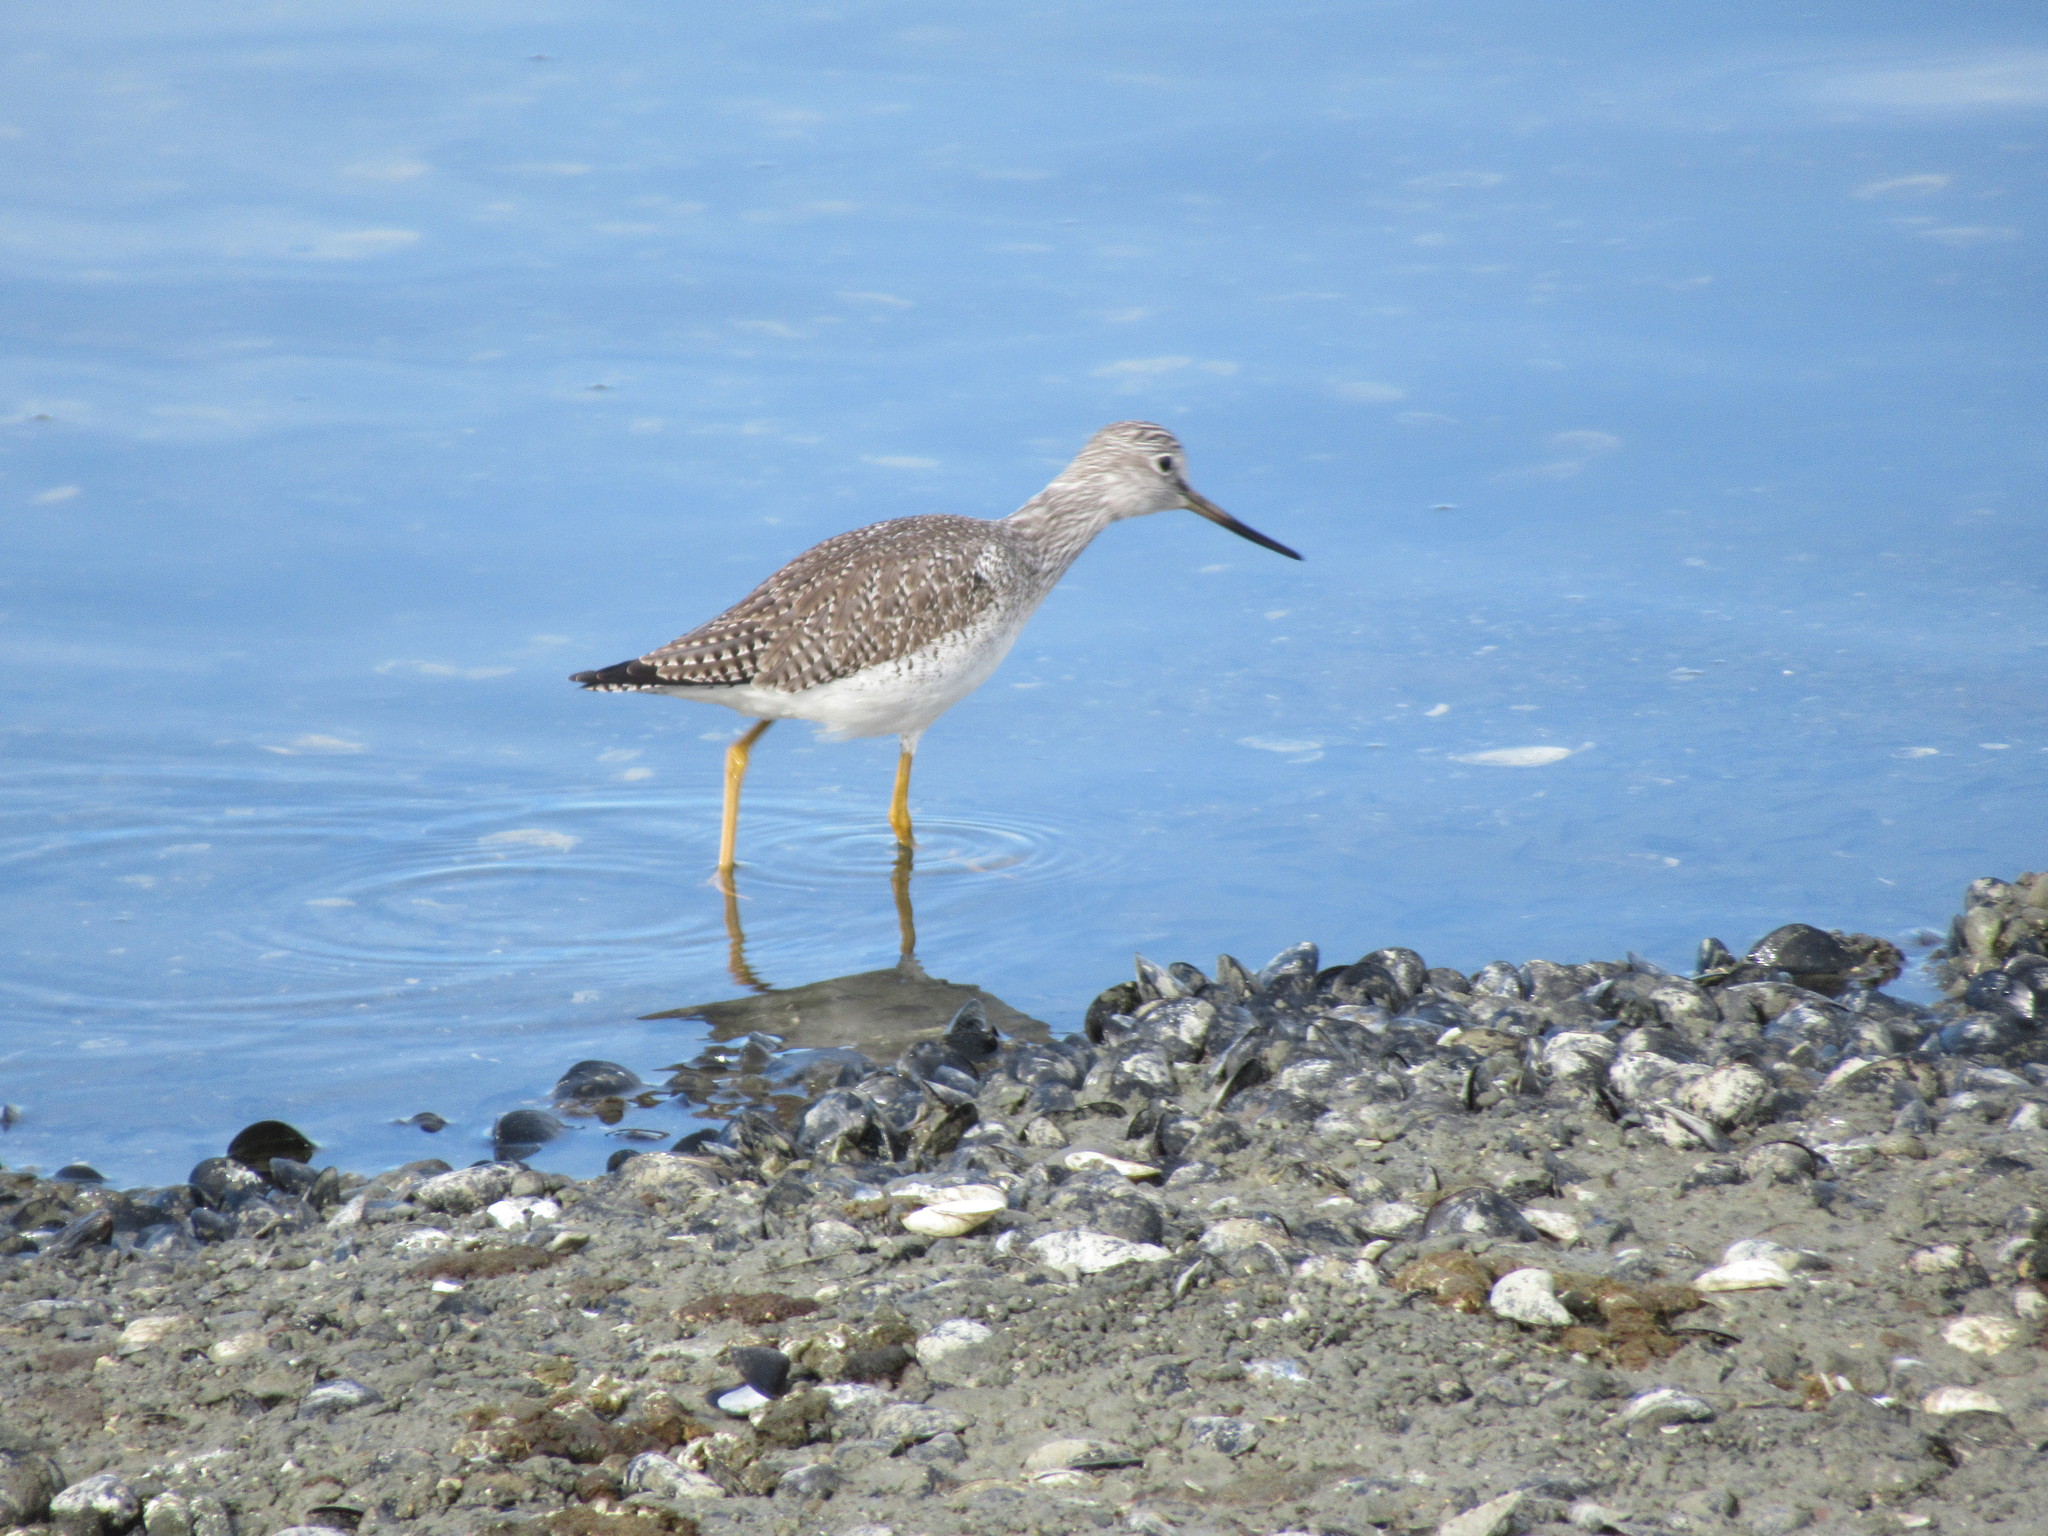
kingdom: Animalia
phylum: Chordata
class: Aves
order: Charadriiformes
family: Scolopacidae
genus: Tringa
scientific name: Tringa melanoleuca
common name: Greater yellowlegs
